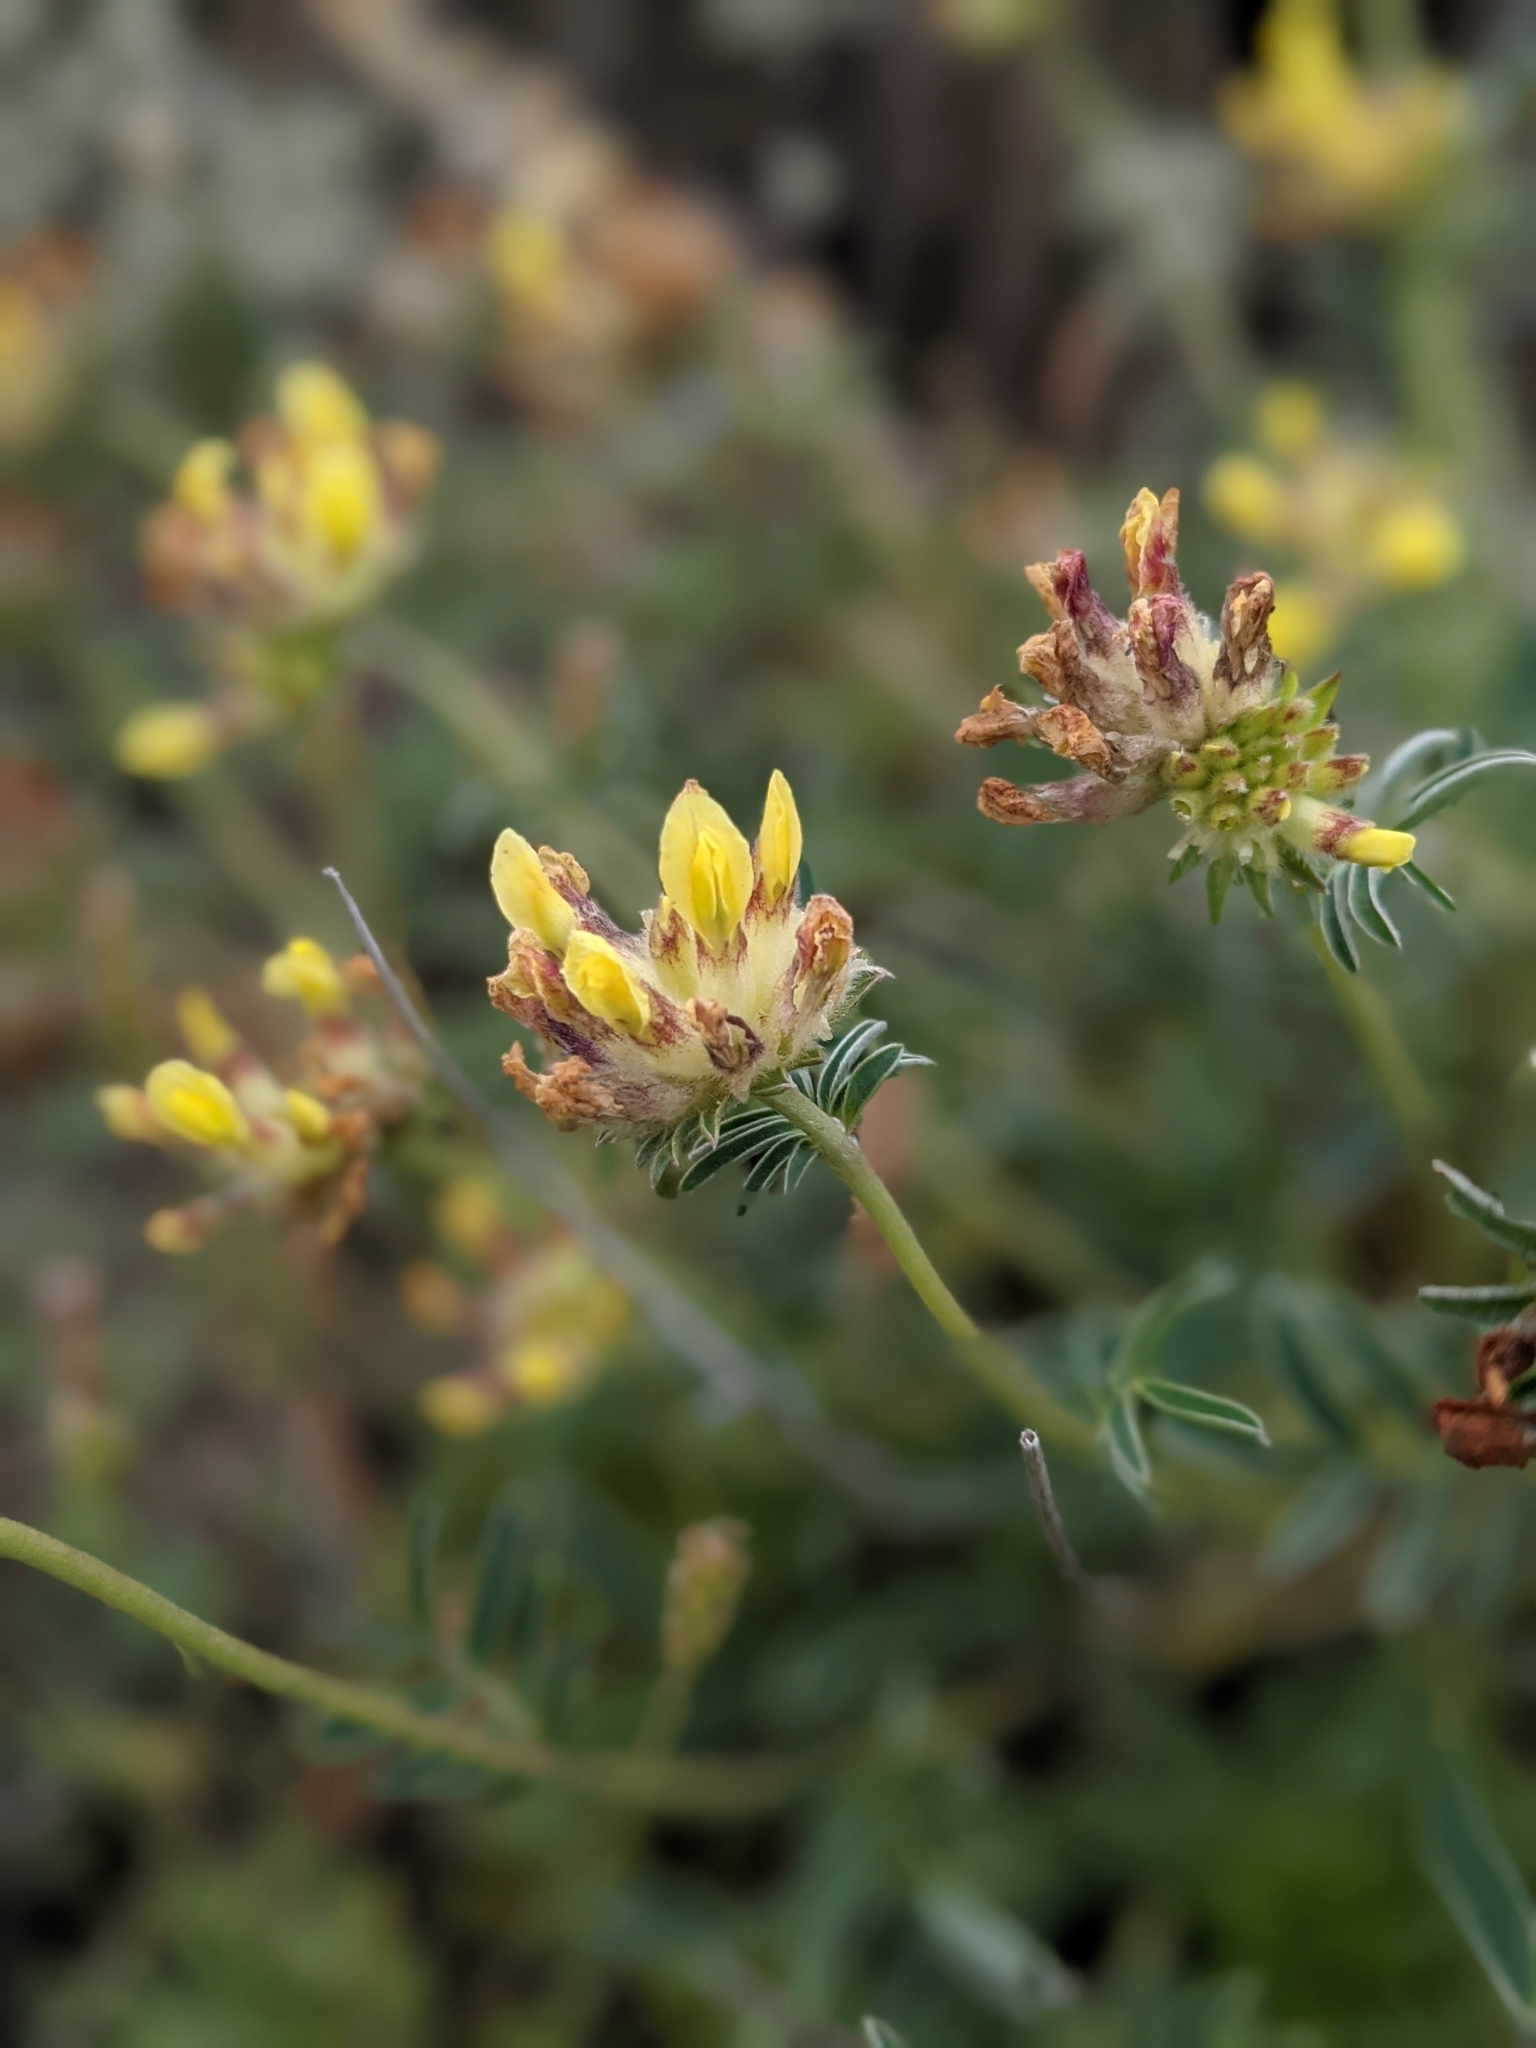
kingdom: Plantae
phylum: Tracheophyta
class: Magnoliopsida
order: Fabales
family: Fabaceae
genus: Anthyllis
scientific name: Anthyllis vulneraria
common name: Kidney vetch
